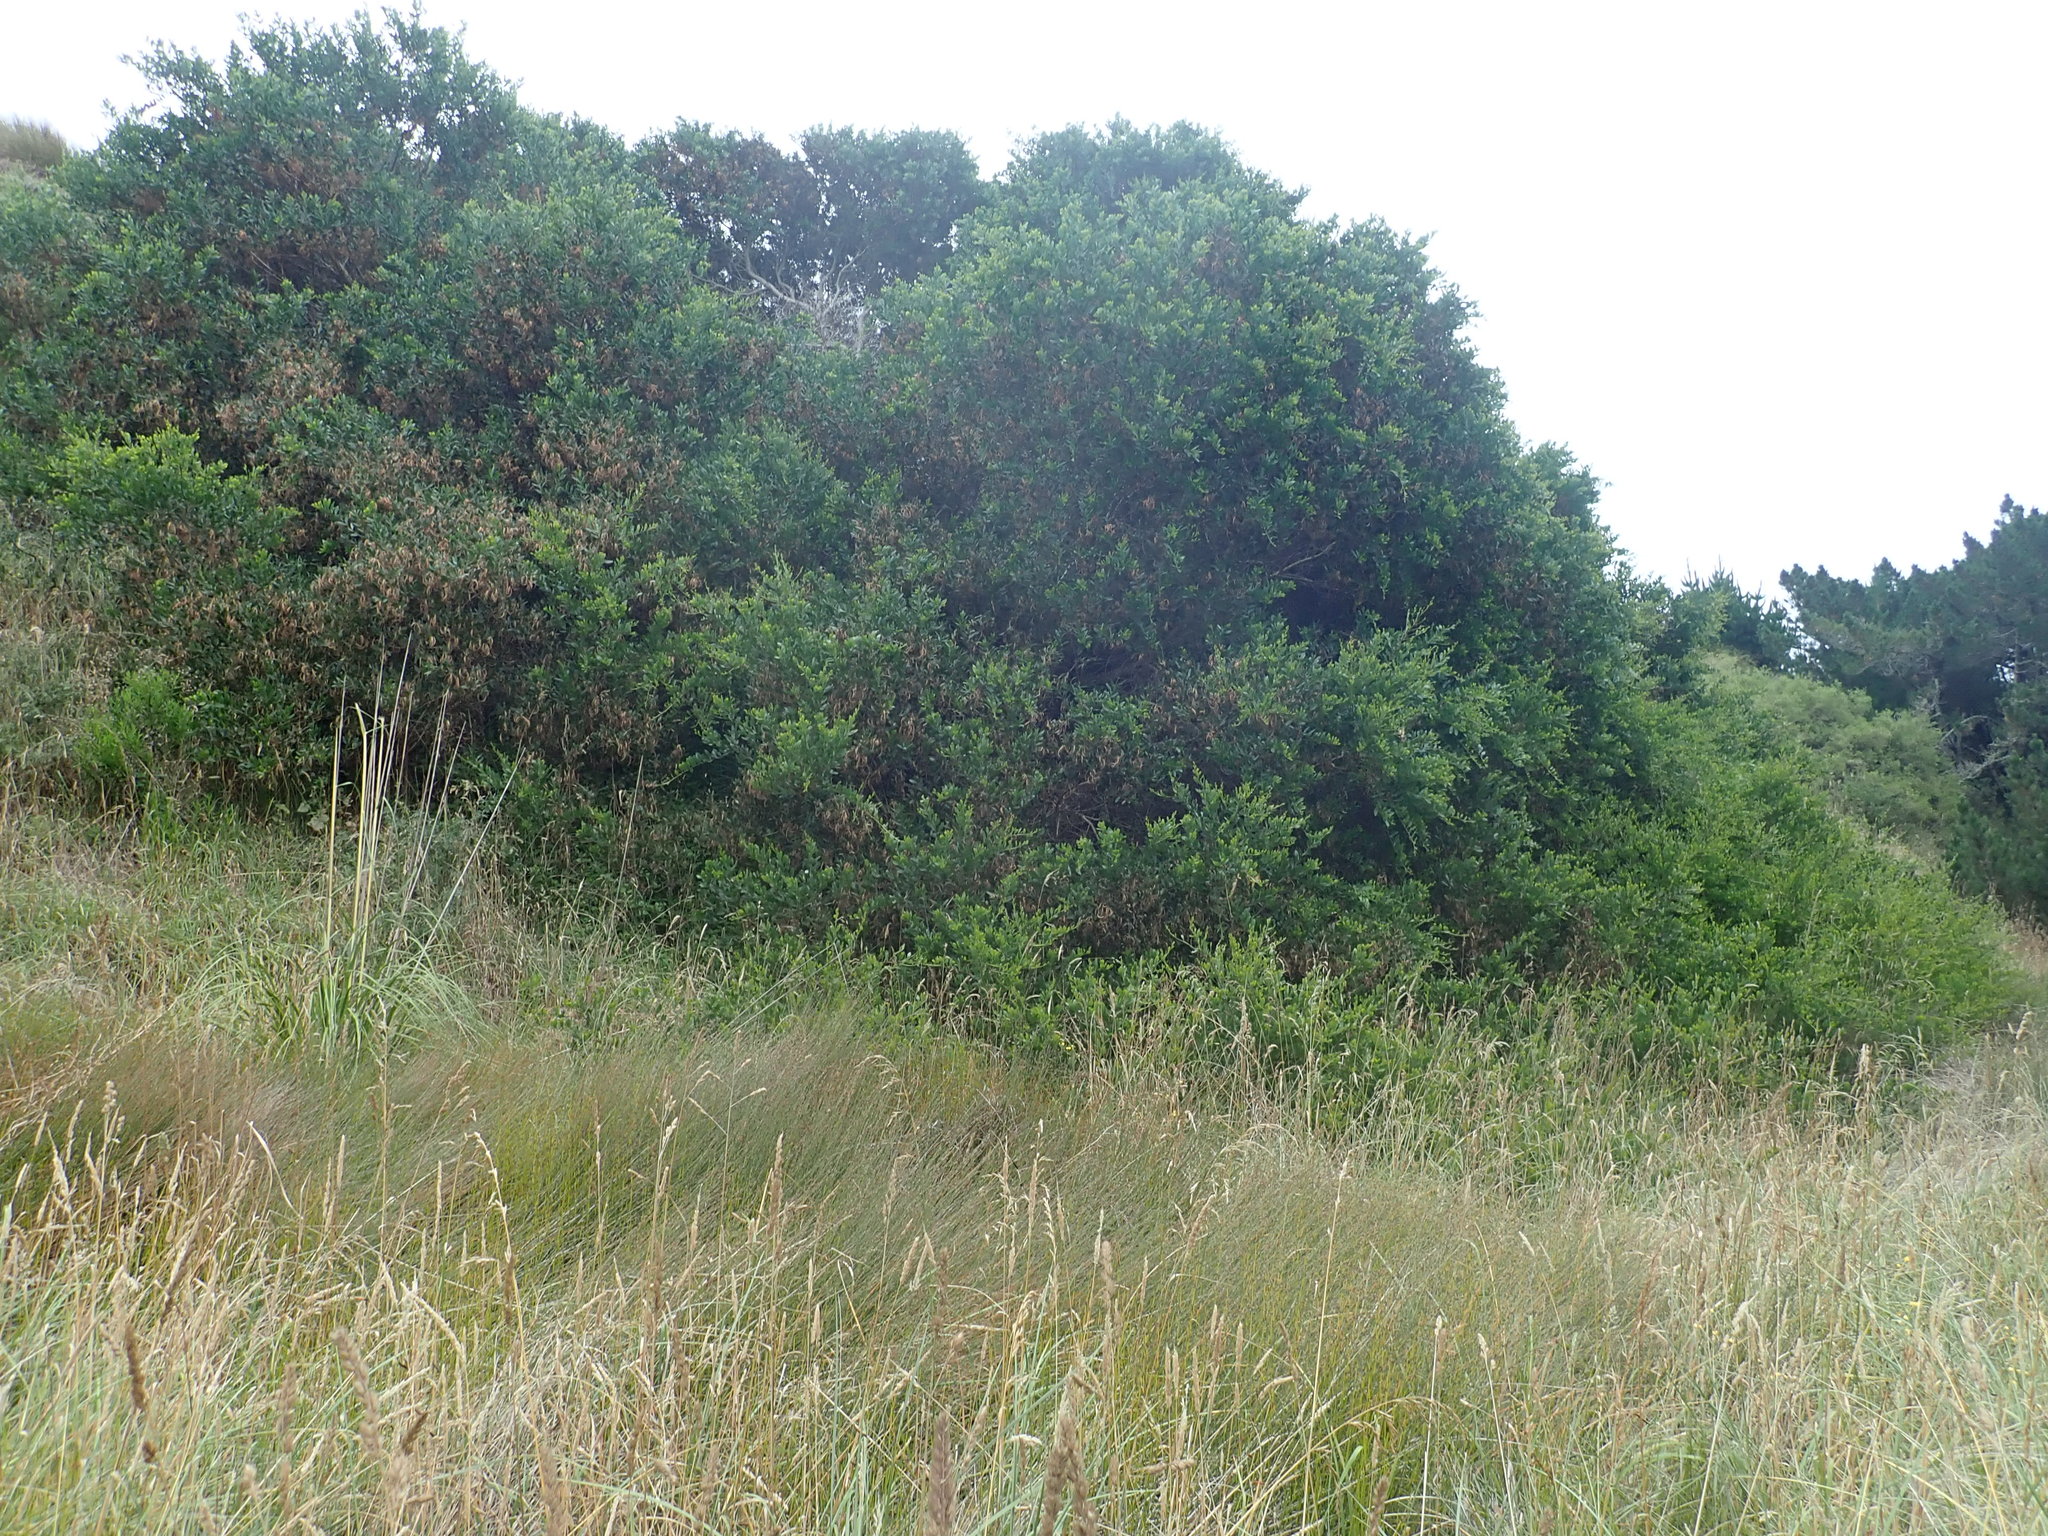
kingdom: Plantae
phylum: Tracheophyta
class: Magnoliopsida
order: Fabales
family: Fabaceae
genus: Acacia
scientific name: Acacia longifolia
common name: Sydney golden wattle
